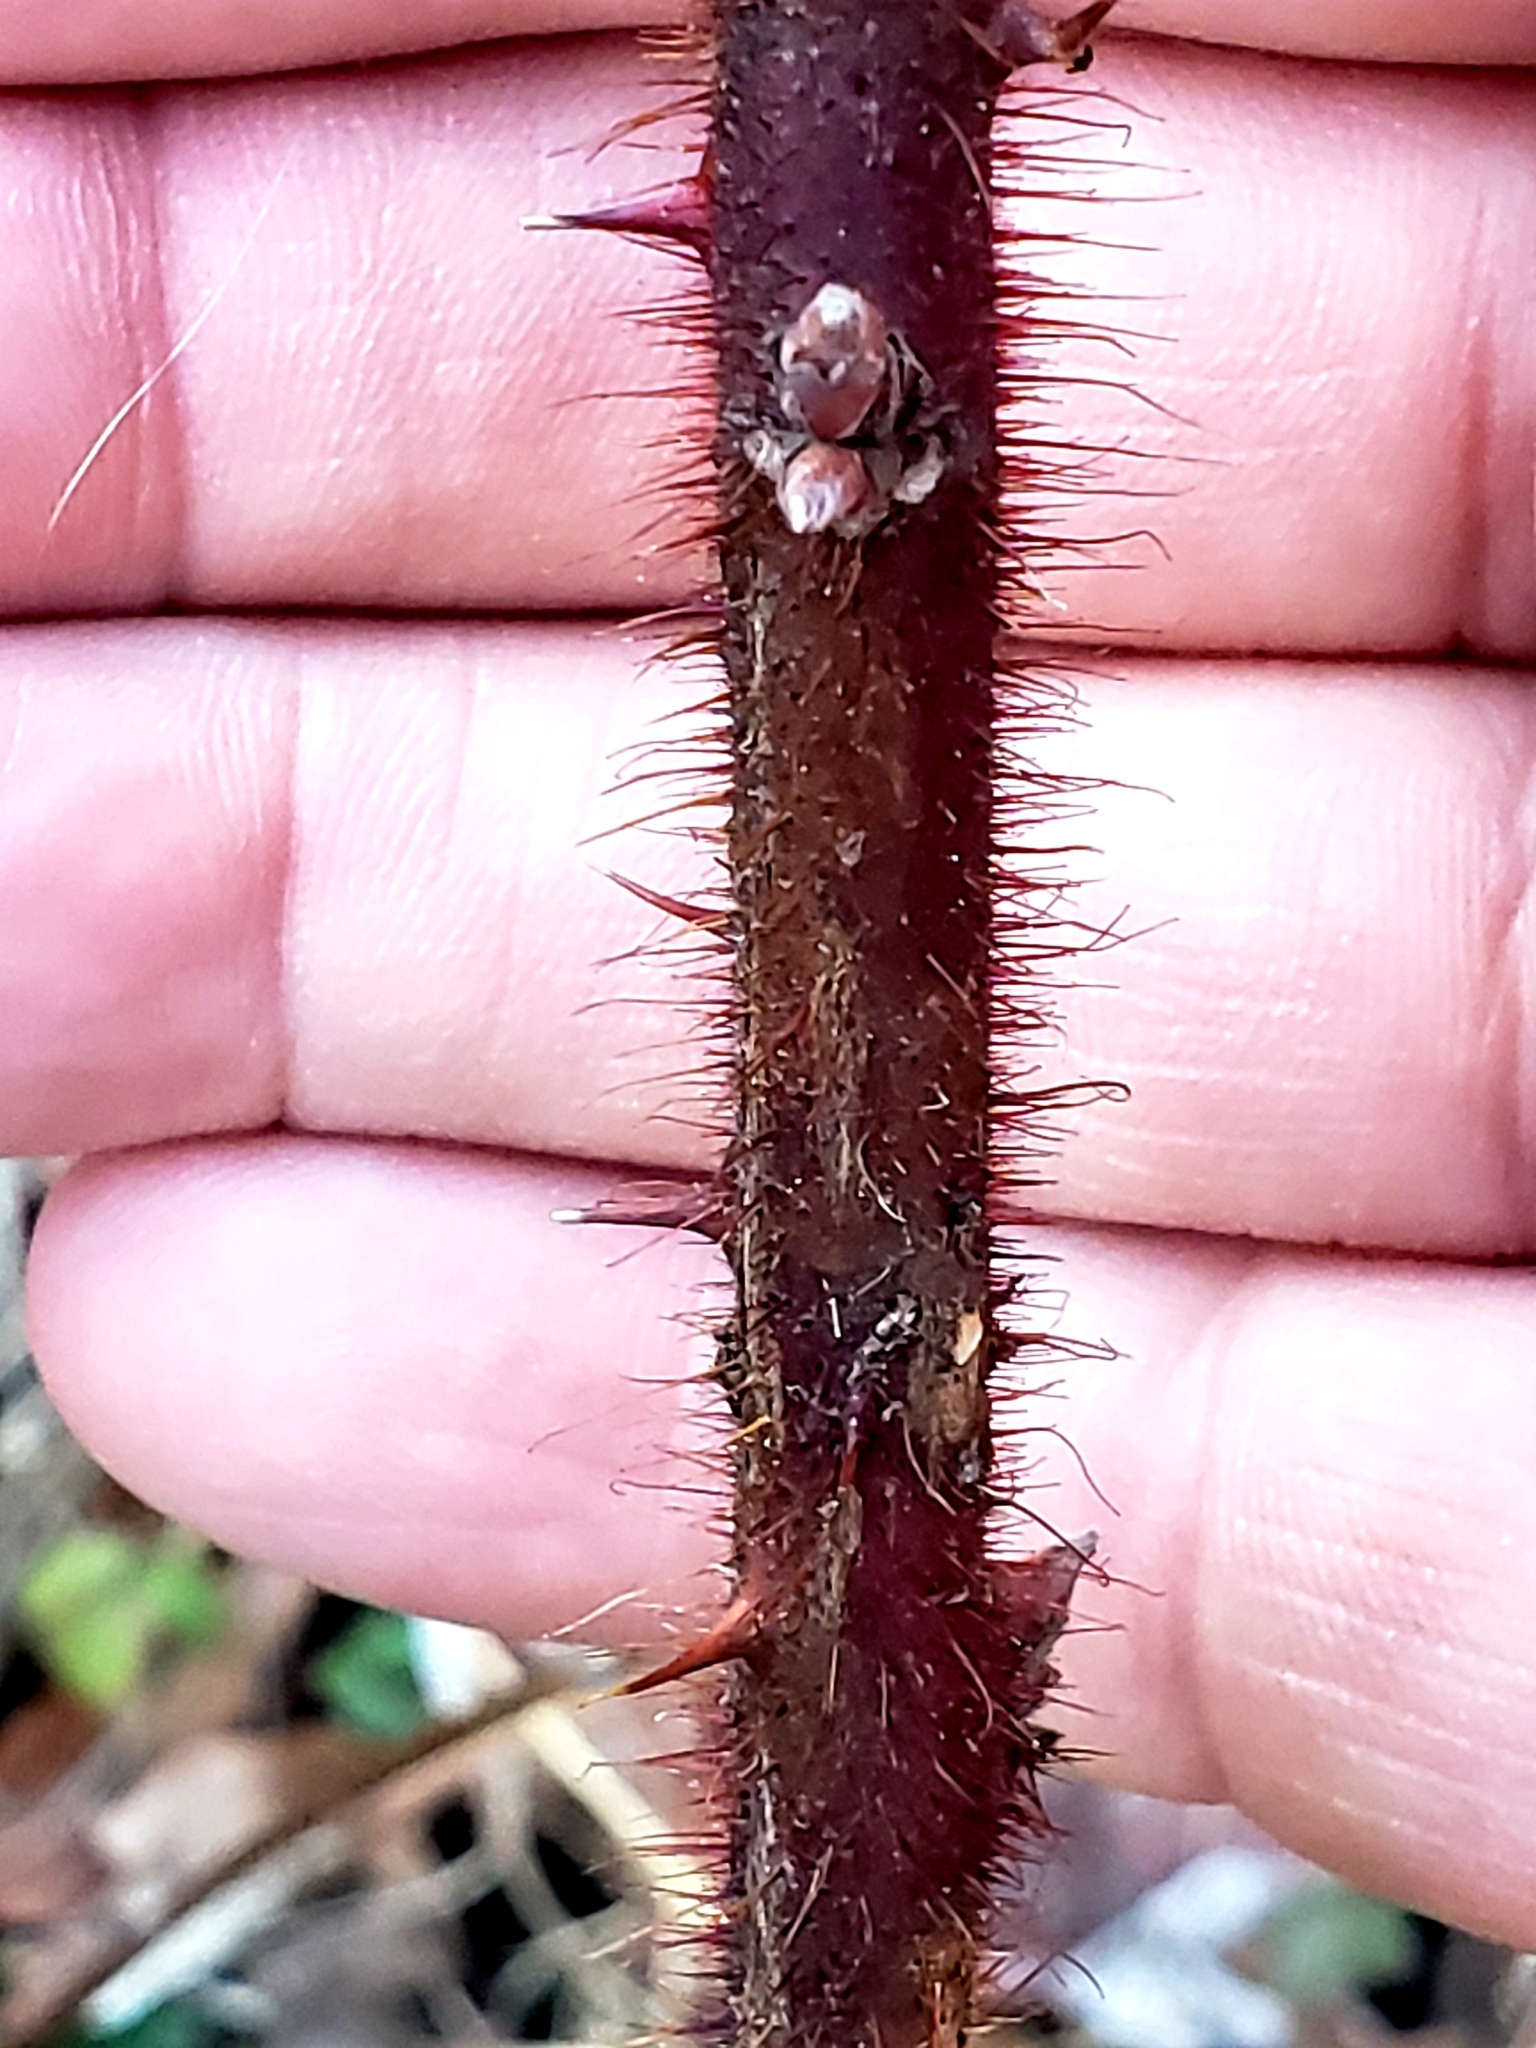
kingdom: Plantae
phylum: Tracheophyta
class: Magnoliopsida
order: Rosales
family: Rosaceae
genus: Rubus
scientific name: Rubus phoenicolasius
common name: Japanese wineberry
